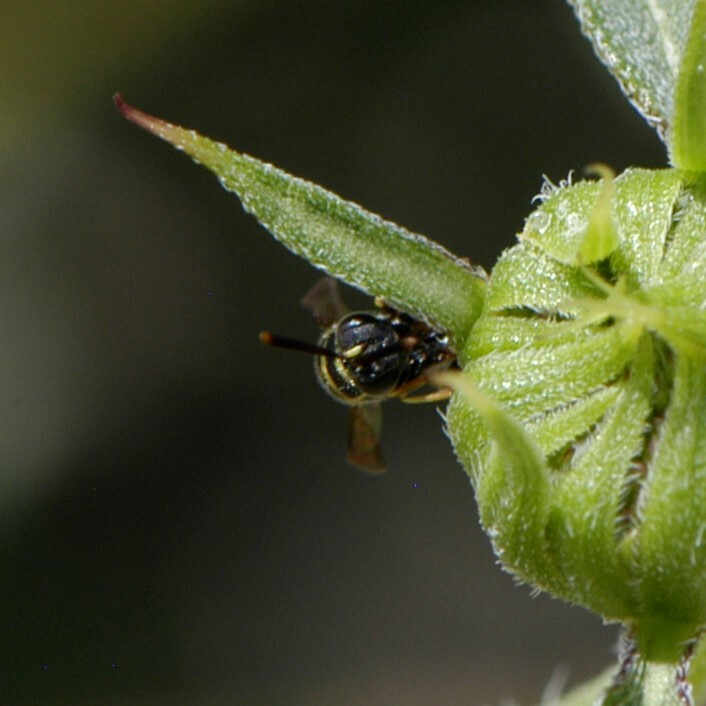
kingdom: Animalia
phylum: Arthropoda
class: Insecta
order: Hymenoptera
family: Leucospidae
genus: Leucospis
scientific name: Leucospis affinis
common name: Wasp
